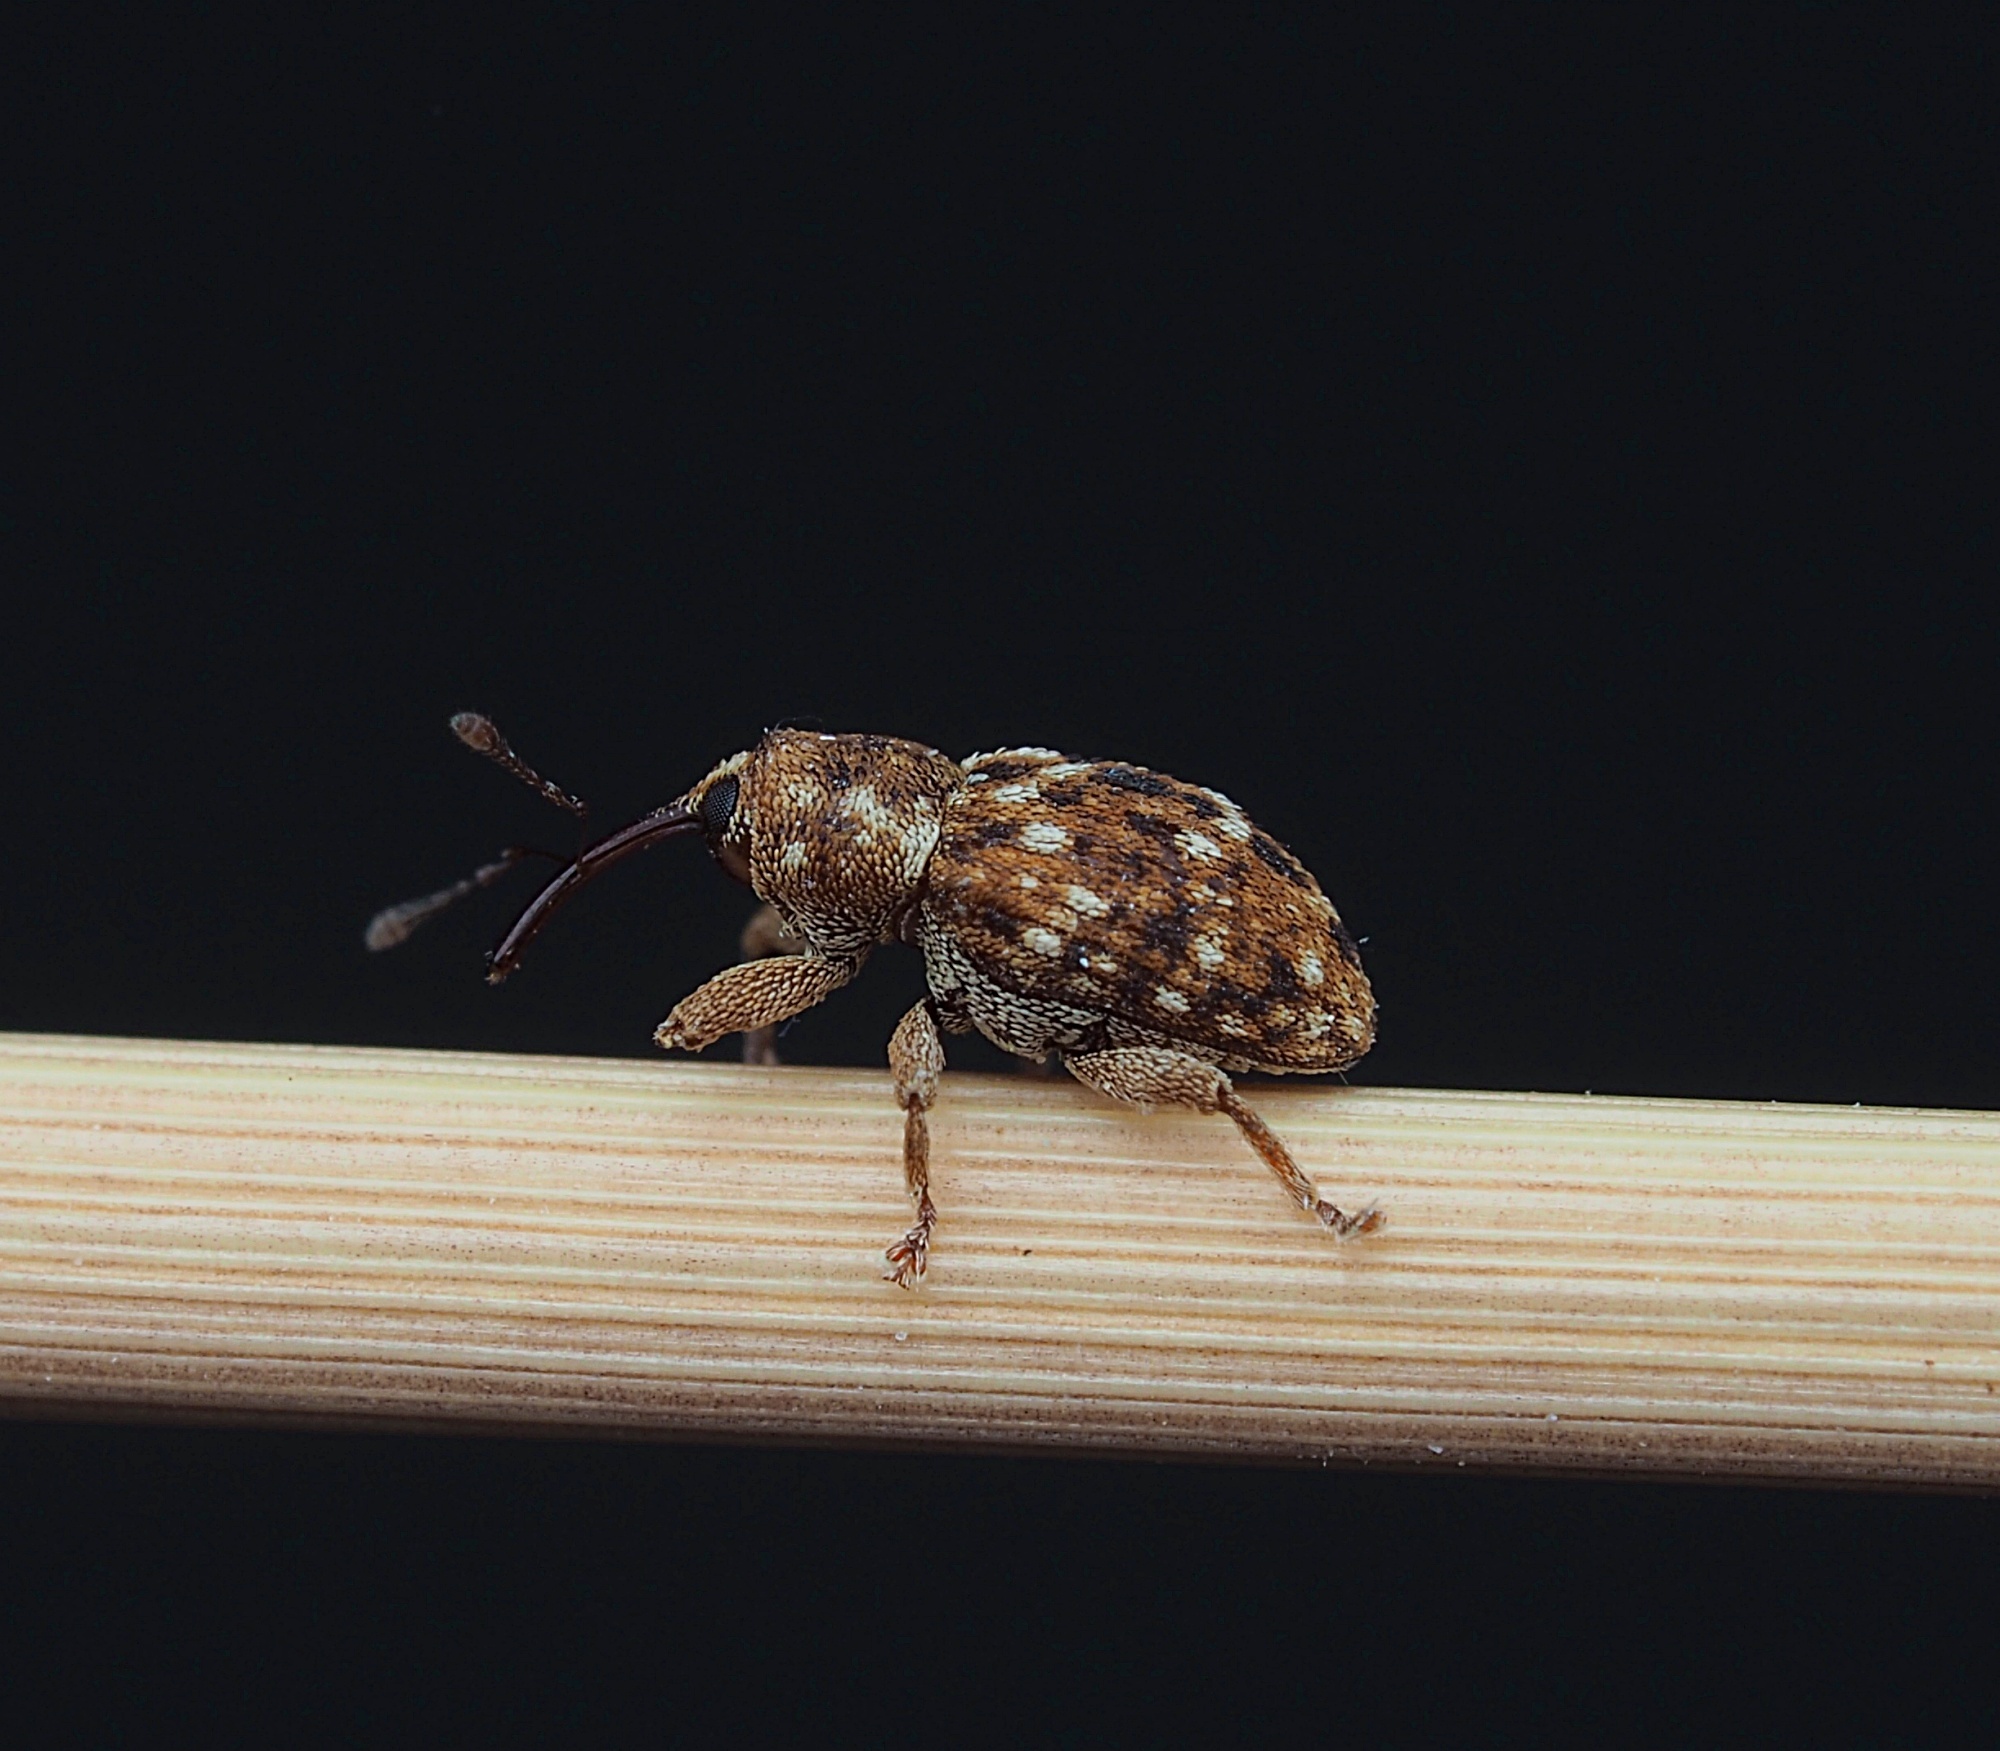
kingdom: Animalia
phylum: Arthropoda
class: Insecta
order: Coleoptera
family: Curculionidae
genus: Storeus
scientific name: Storeus albosignatus
